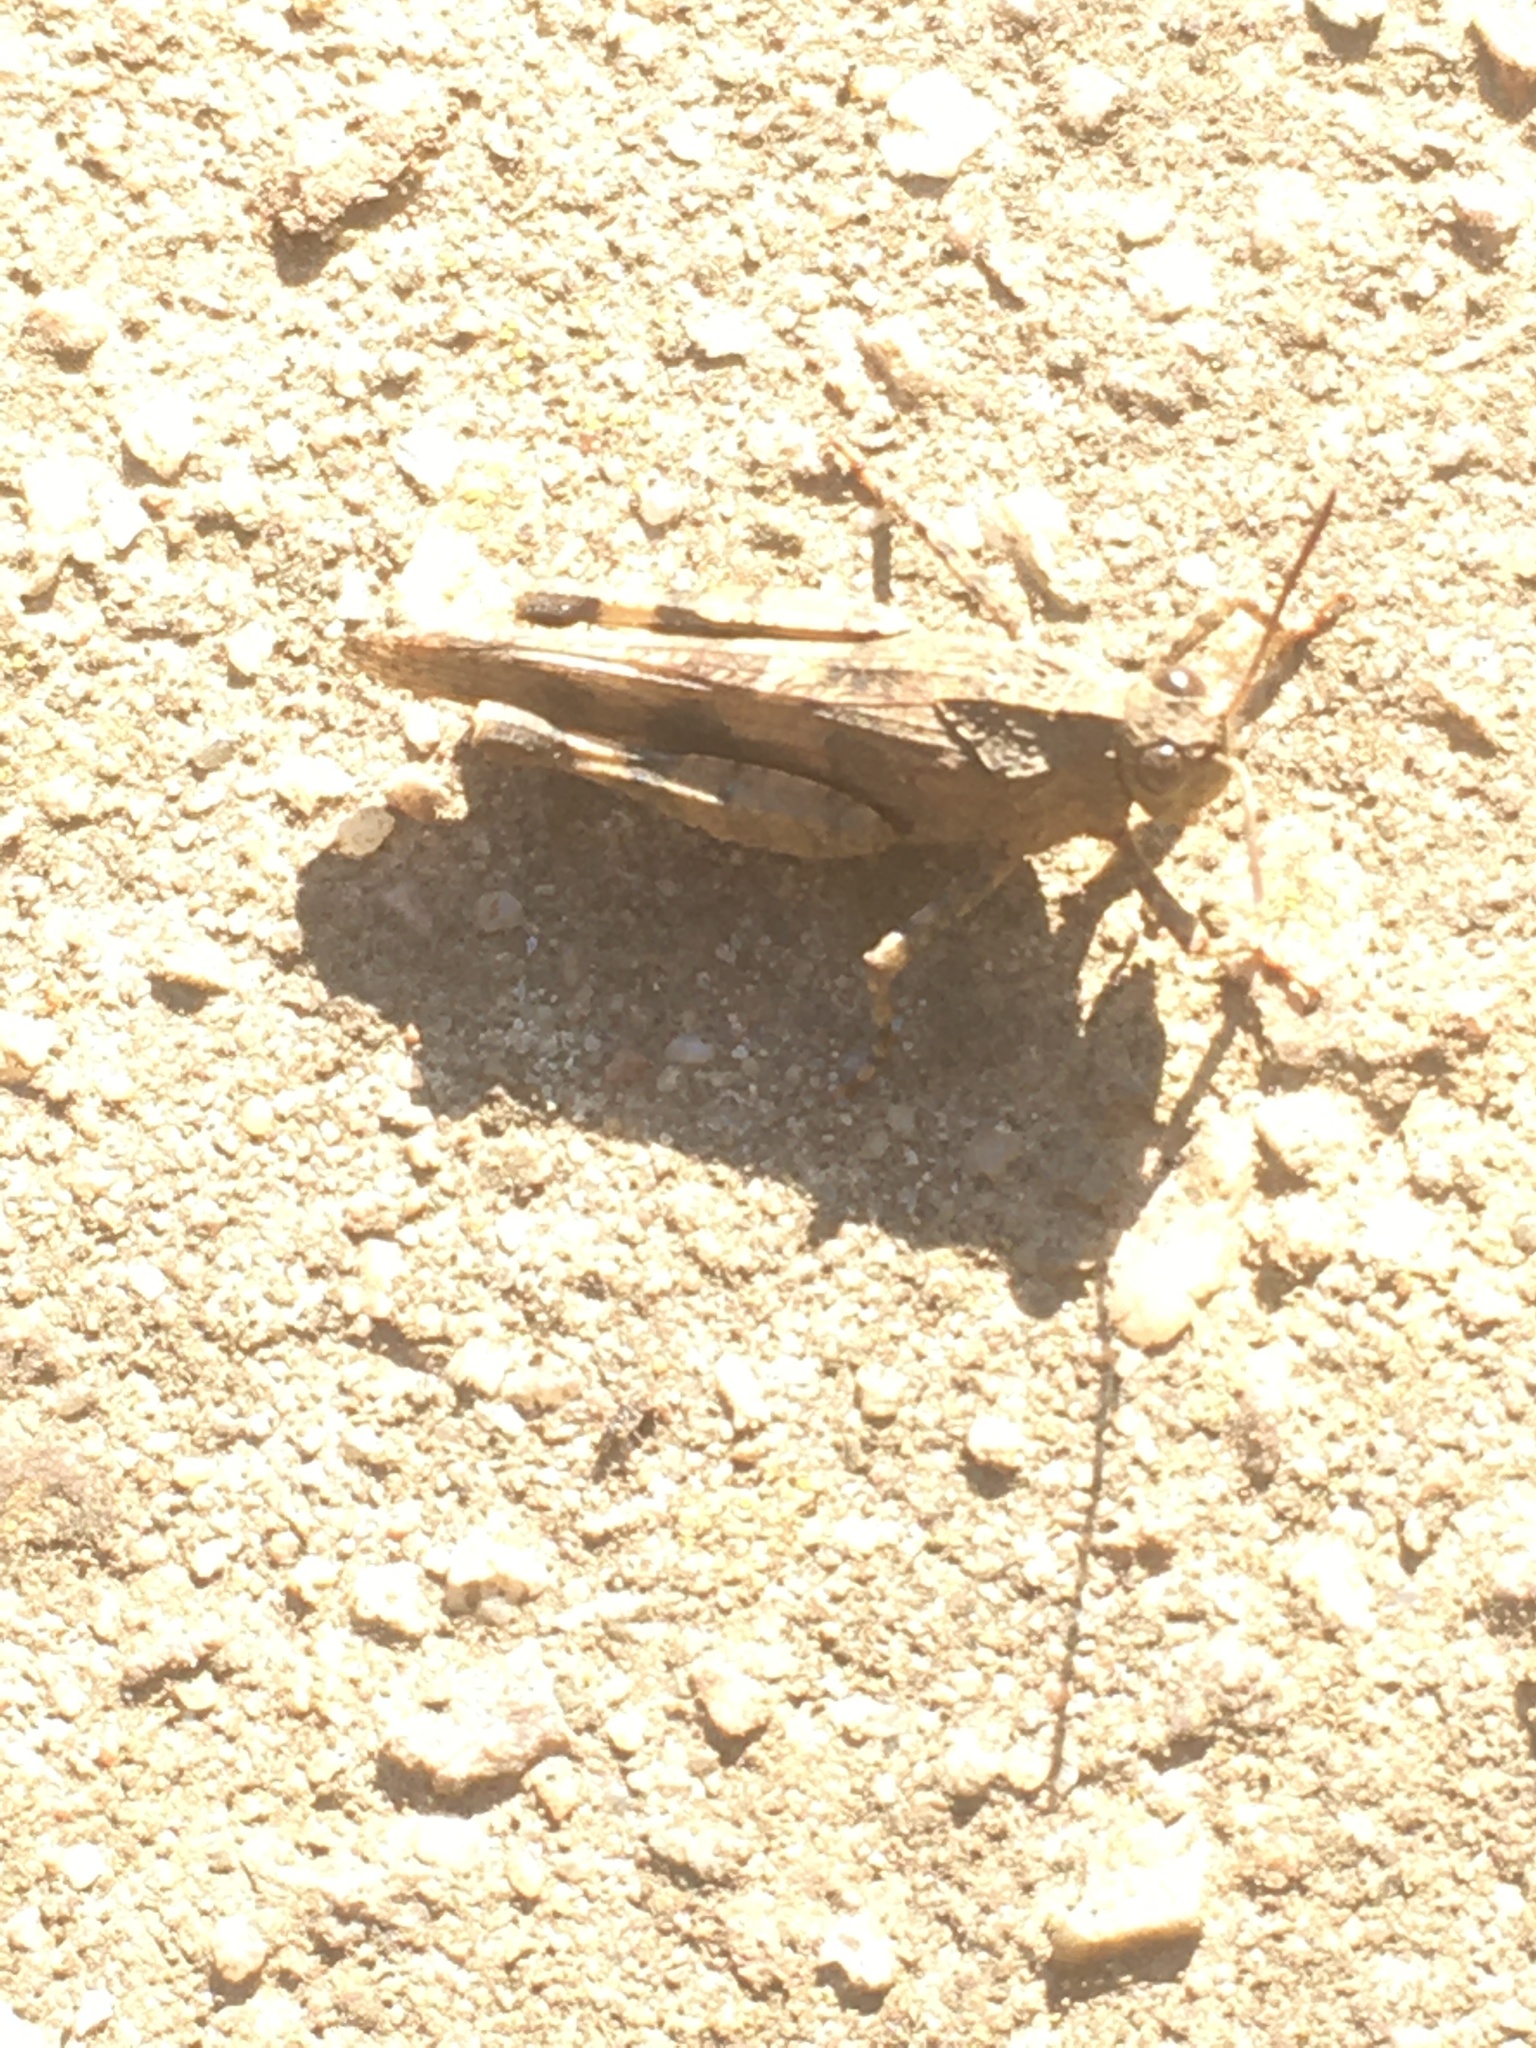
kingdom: Animalia
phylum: Arthropoda
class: Insecta
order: Orthoptera
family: Acrididae
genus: Oedipoda
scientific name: Oedipoda caerulescens
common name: Blue-winged grasshopper
